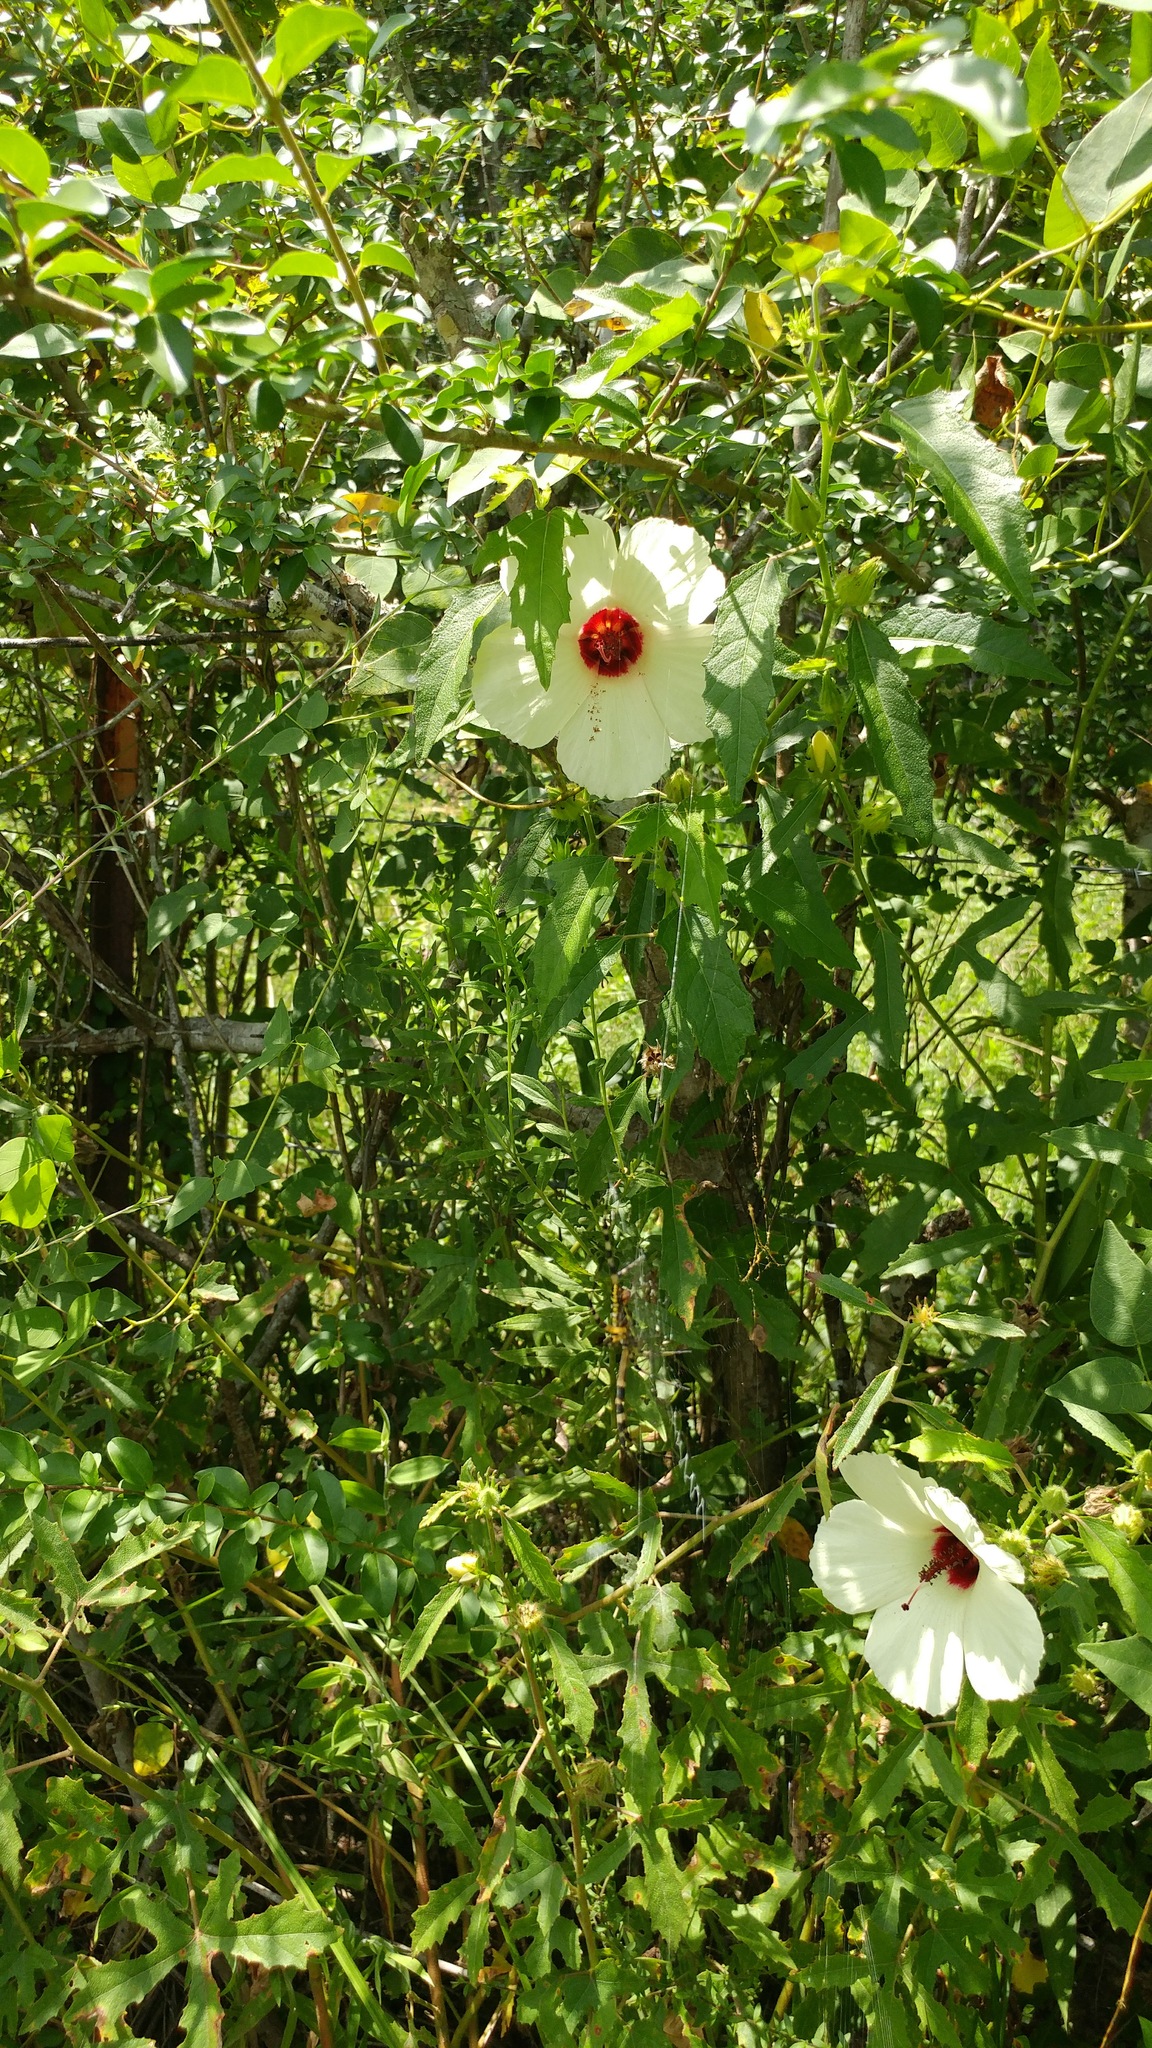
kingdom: Plantae
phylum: Tracheophyta
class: Magnoliopsida
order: Malvales
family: Malvaceae
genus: Hibiscus
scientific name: Hibiscus aculeatus
